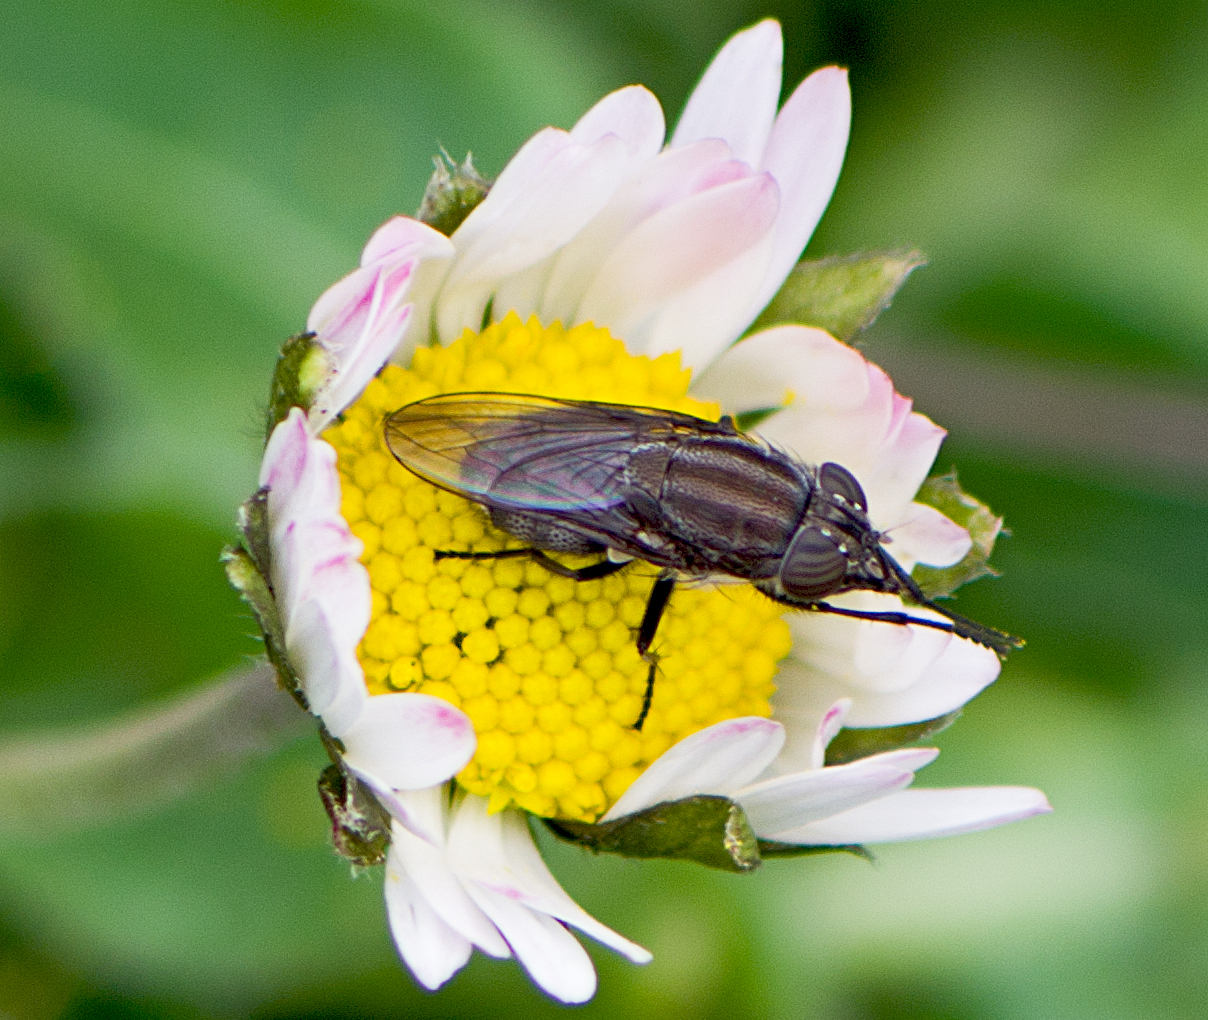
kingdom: Animalia
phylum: Arthropoda
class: Insecta
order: Diptera
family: Calliphoridae
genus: Stomorhina
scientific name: Stomorhina lunata
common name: Locust blowfly
